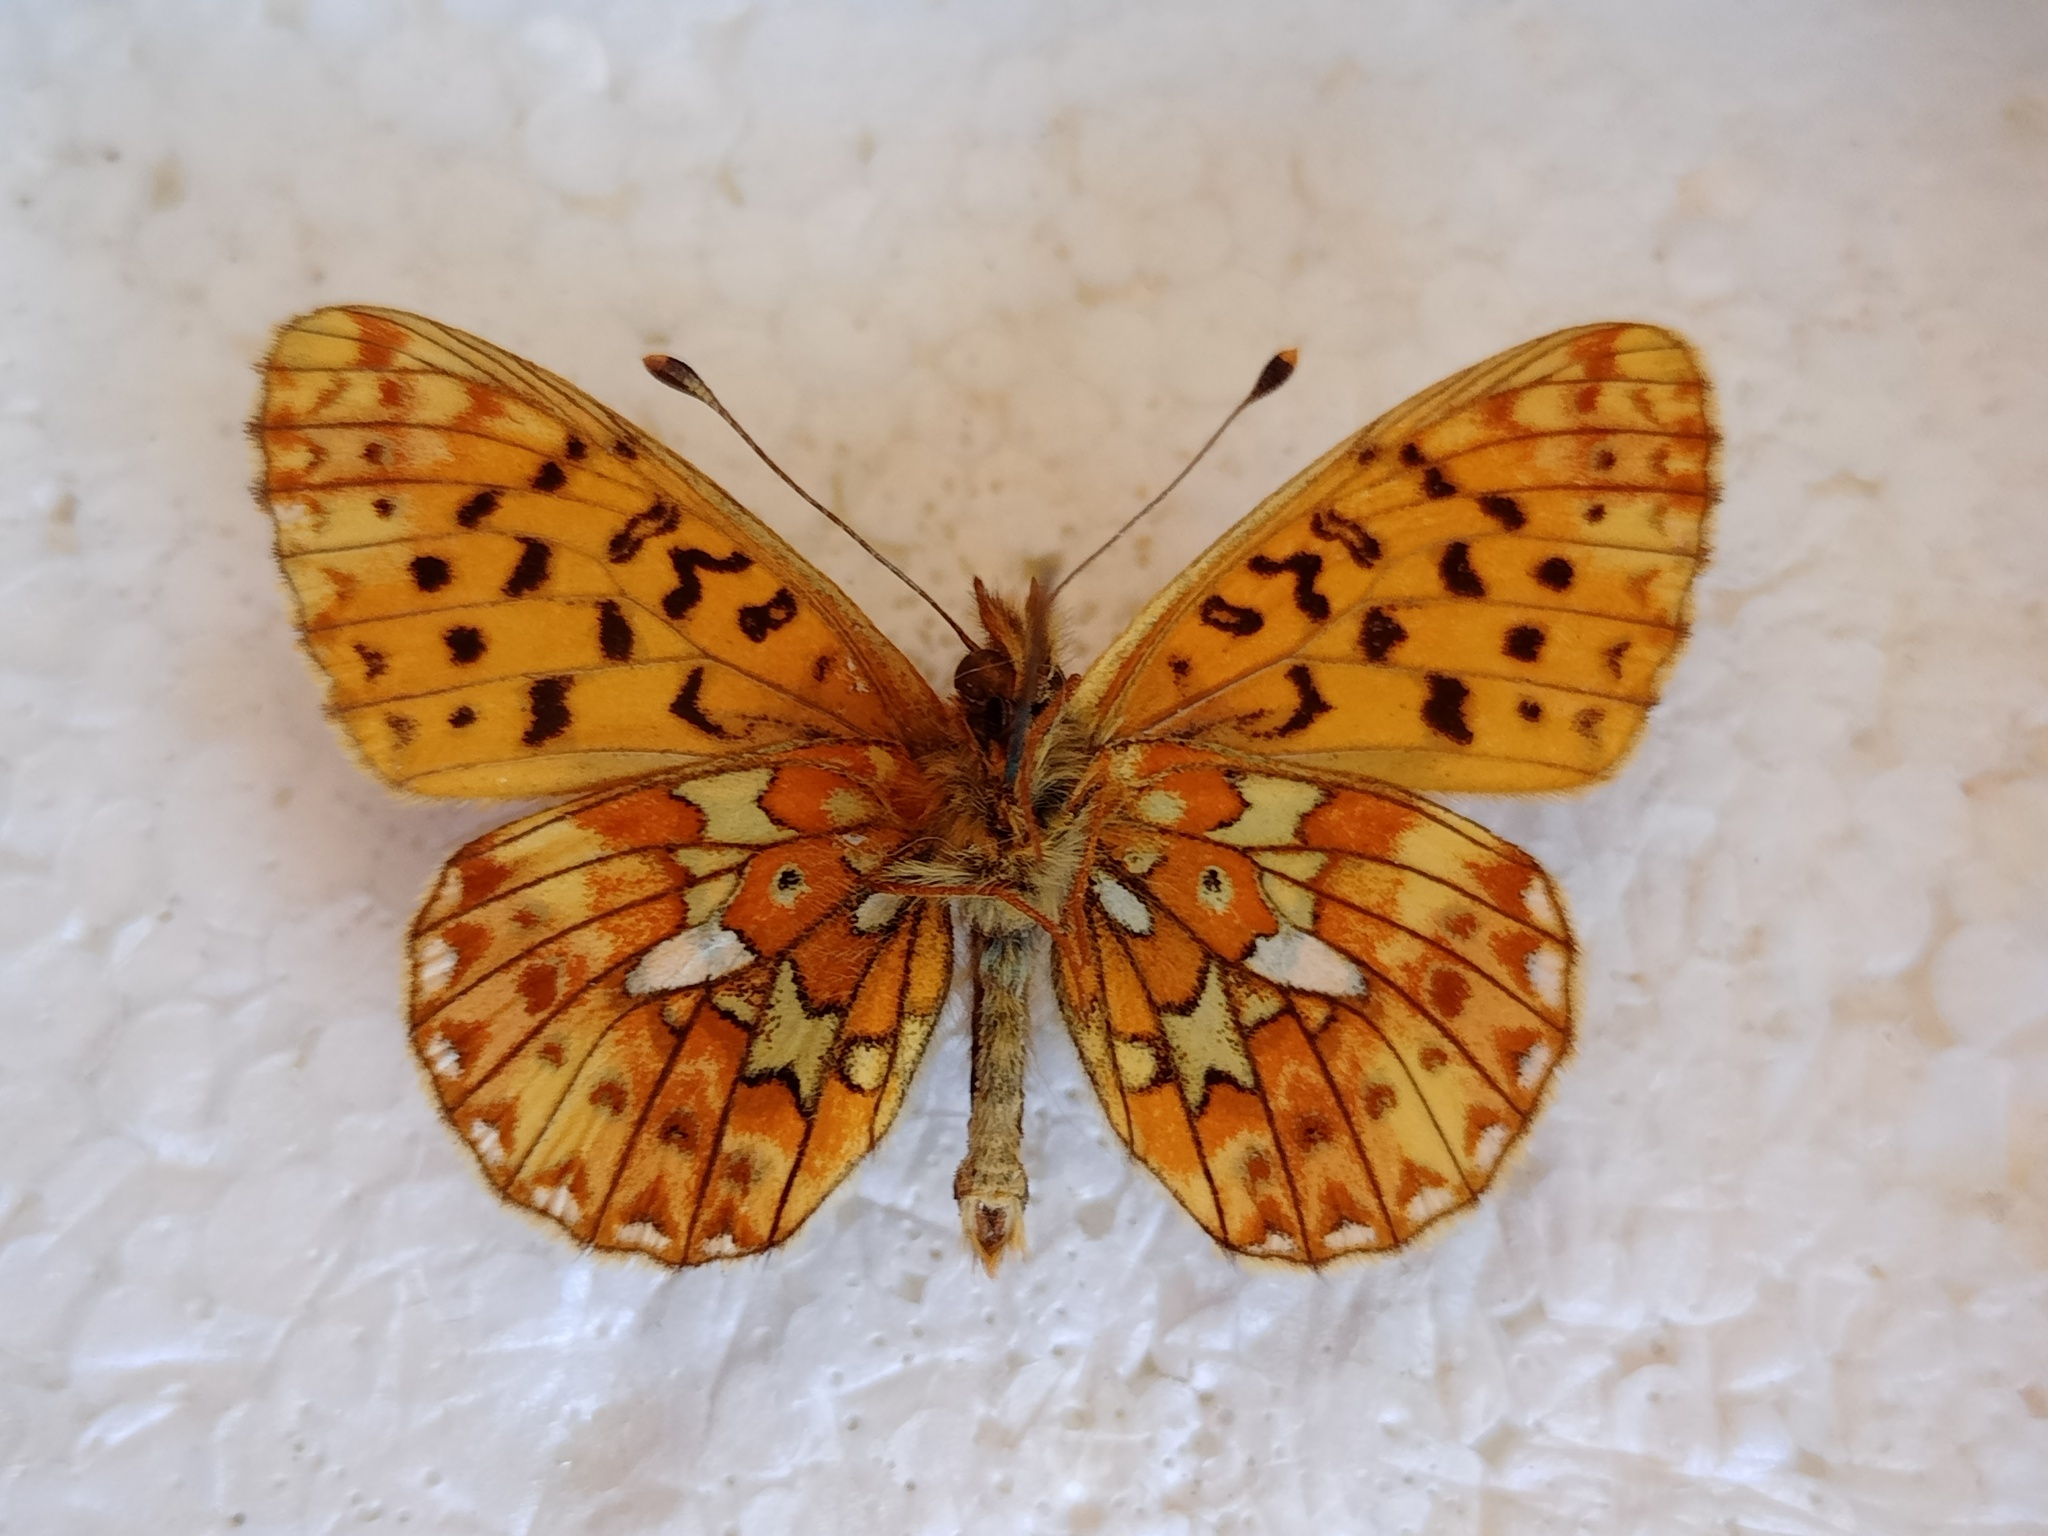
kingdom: Animalia
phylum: Arthropoda
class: Insecta
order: Lepidoptera
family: Nymphalidae
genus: Clossiana
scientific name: Clossiana euphrosyne
